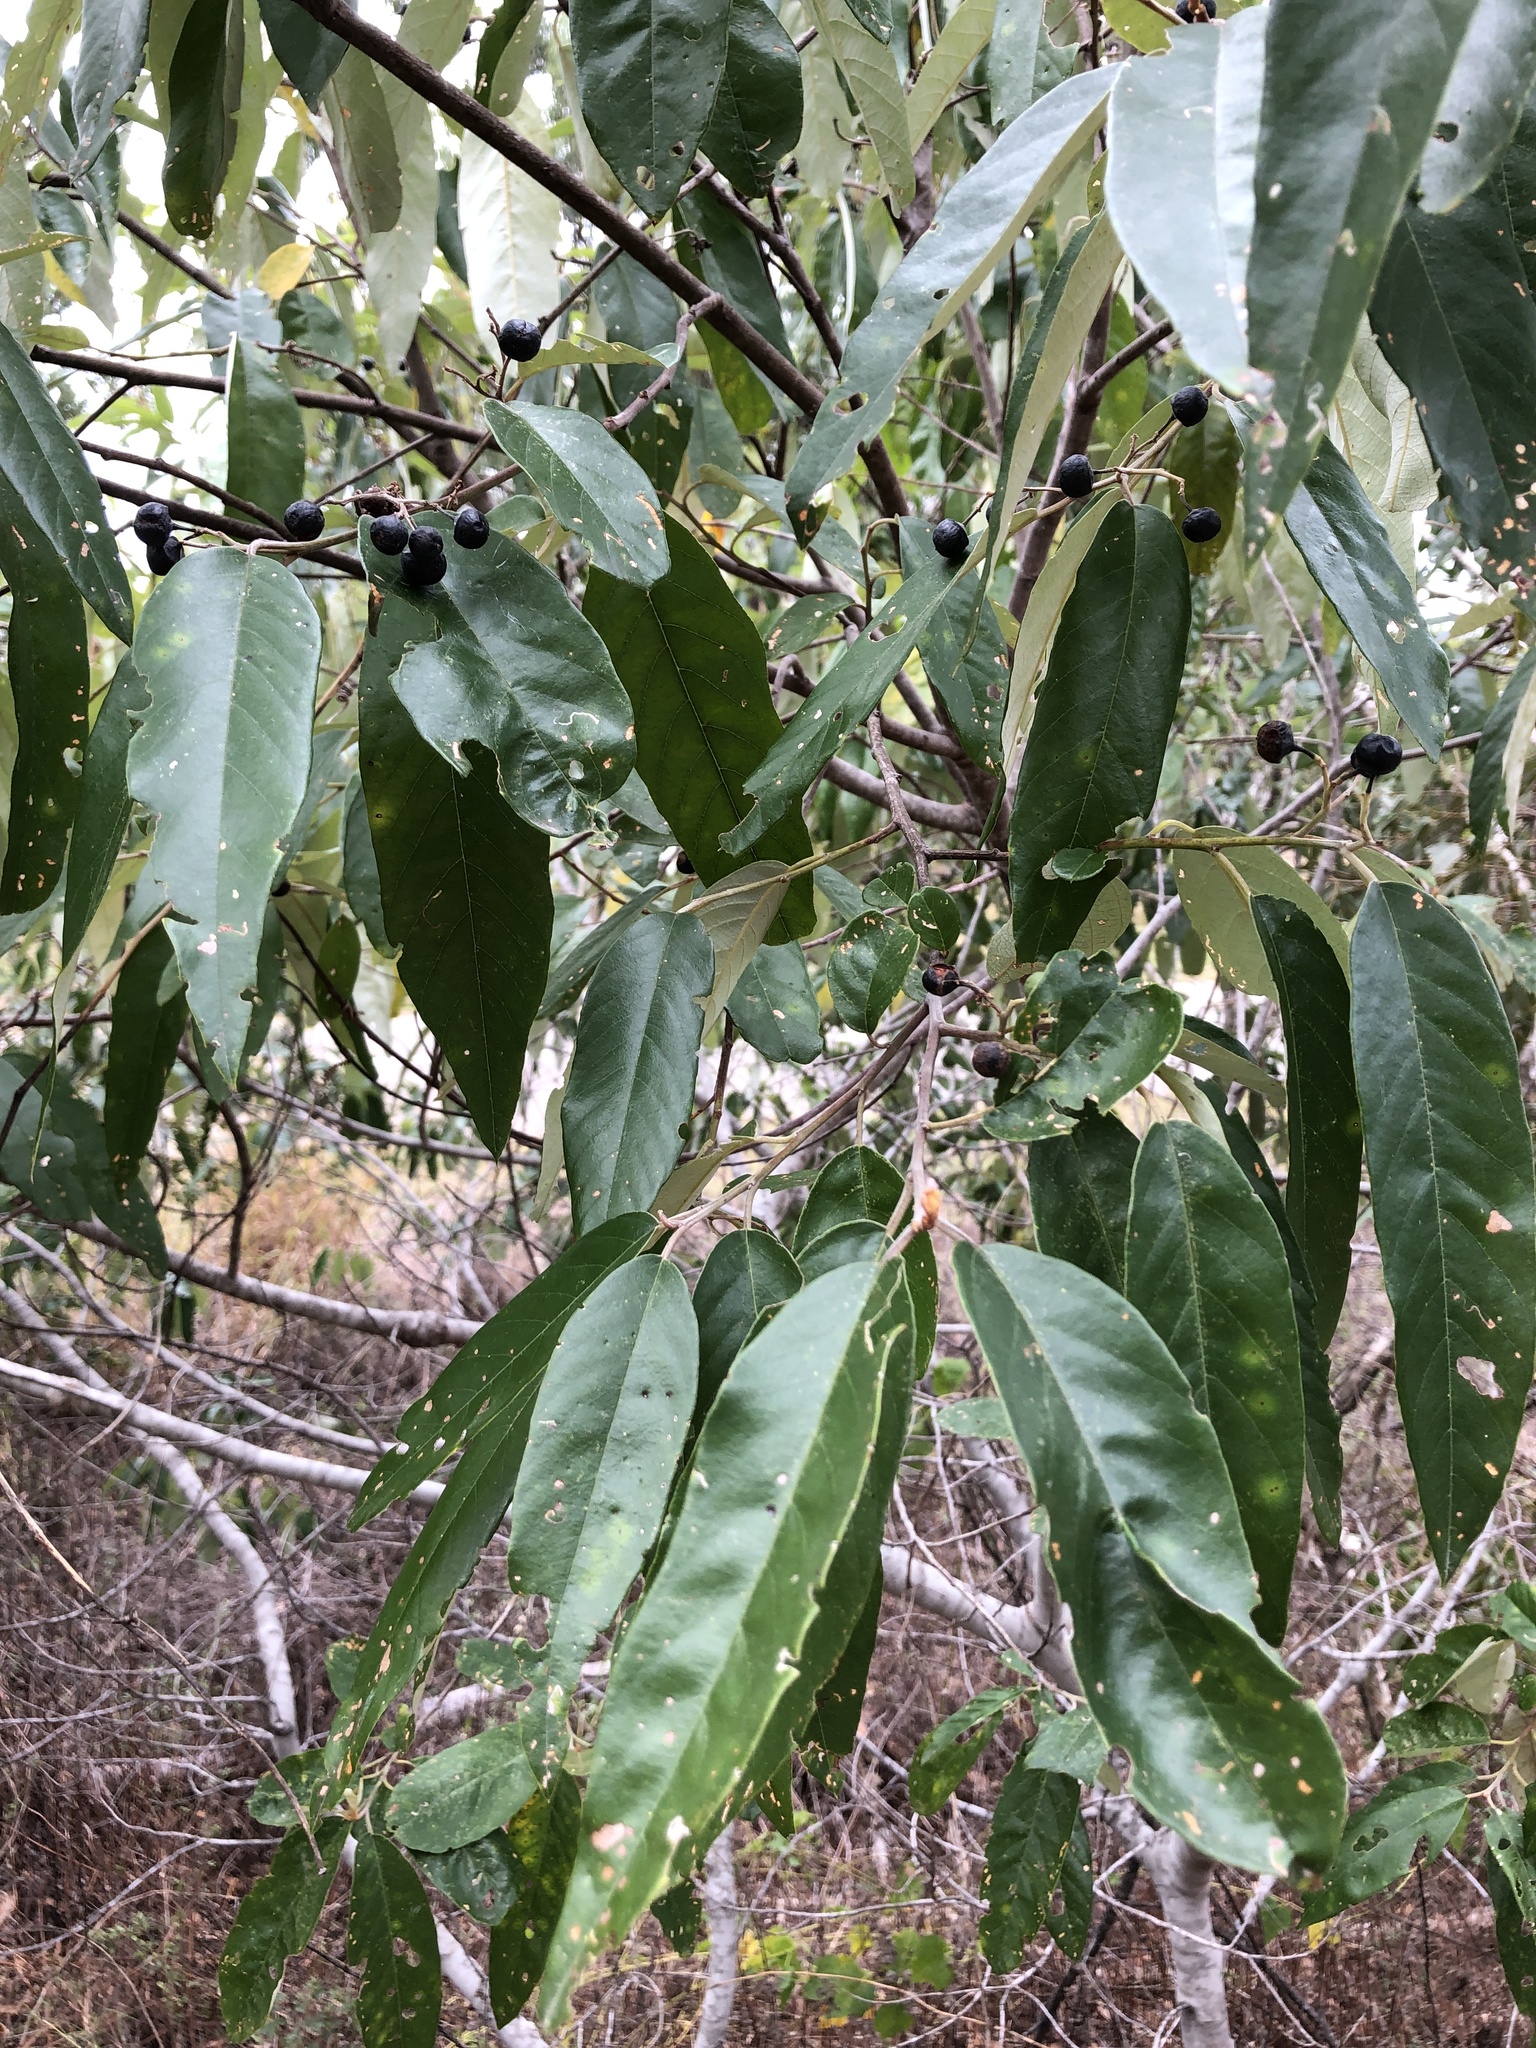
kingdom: Plantae
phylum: Tracheophyta
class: Magnoliopsida
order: Rosales
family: Rhamnaceae
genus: Alphitonia
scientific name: Alphitonia excelsa
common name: Red ash
